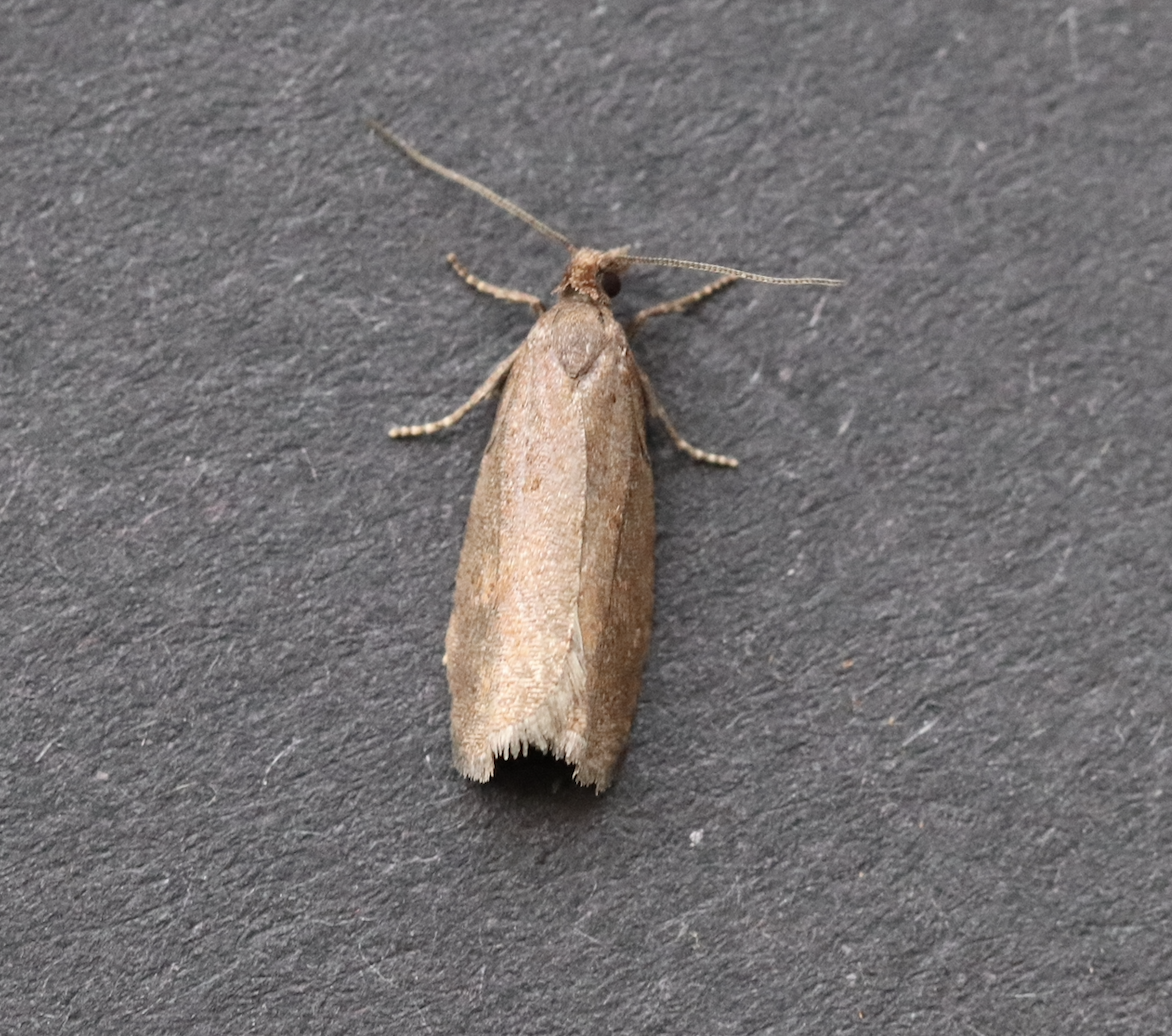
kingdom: Animalia
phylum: Arthropoda
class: Insecta
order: Lepidoptera
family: Tortricidae
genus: Epinotia
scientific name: Epinotia myricana
